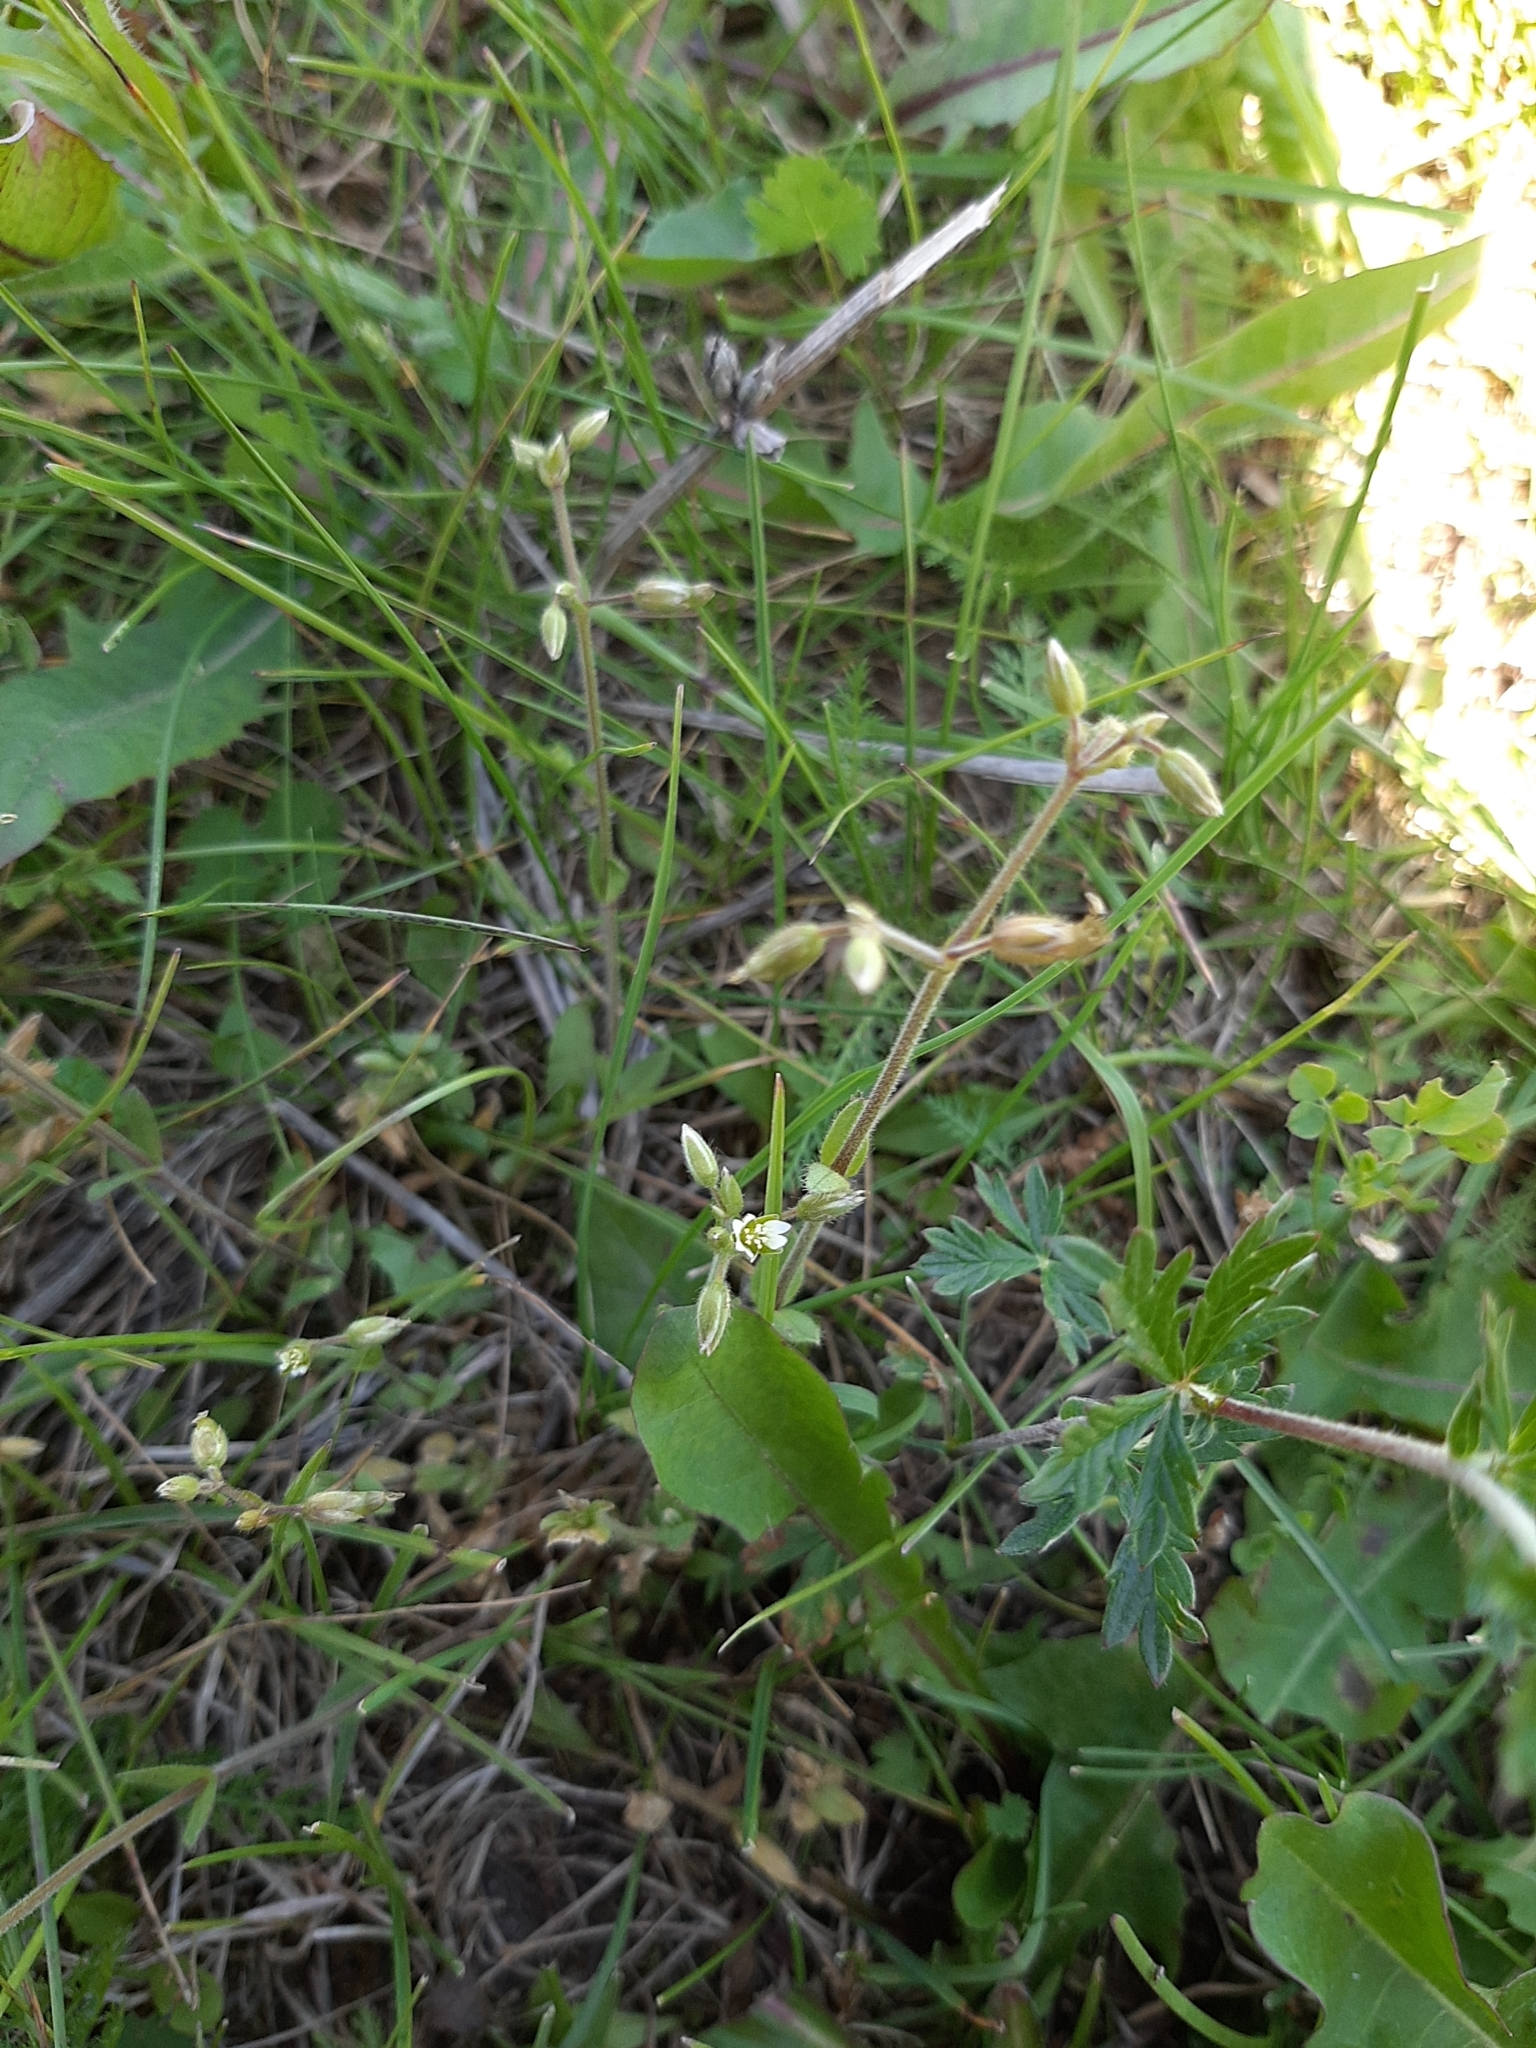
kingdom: Plantae
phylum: Tracheophyta
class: Magnoliopsida
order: Caryophyllales
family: Caryophyllaceae
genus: Cerastium
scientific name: Cerastium holosteoides
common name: Big chickweed
